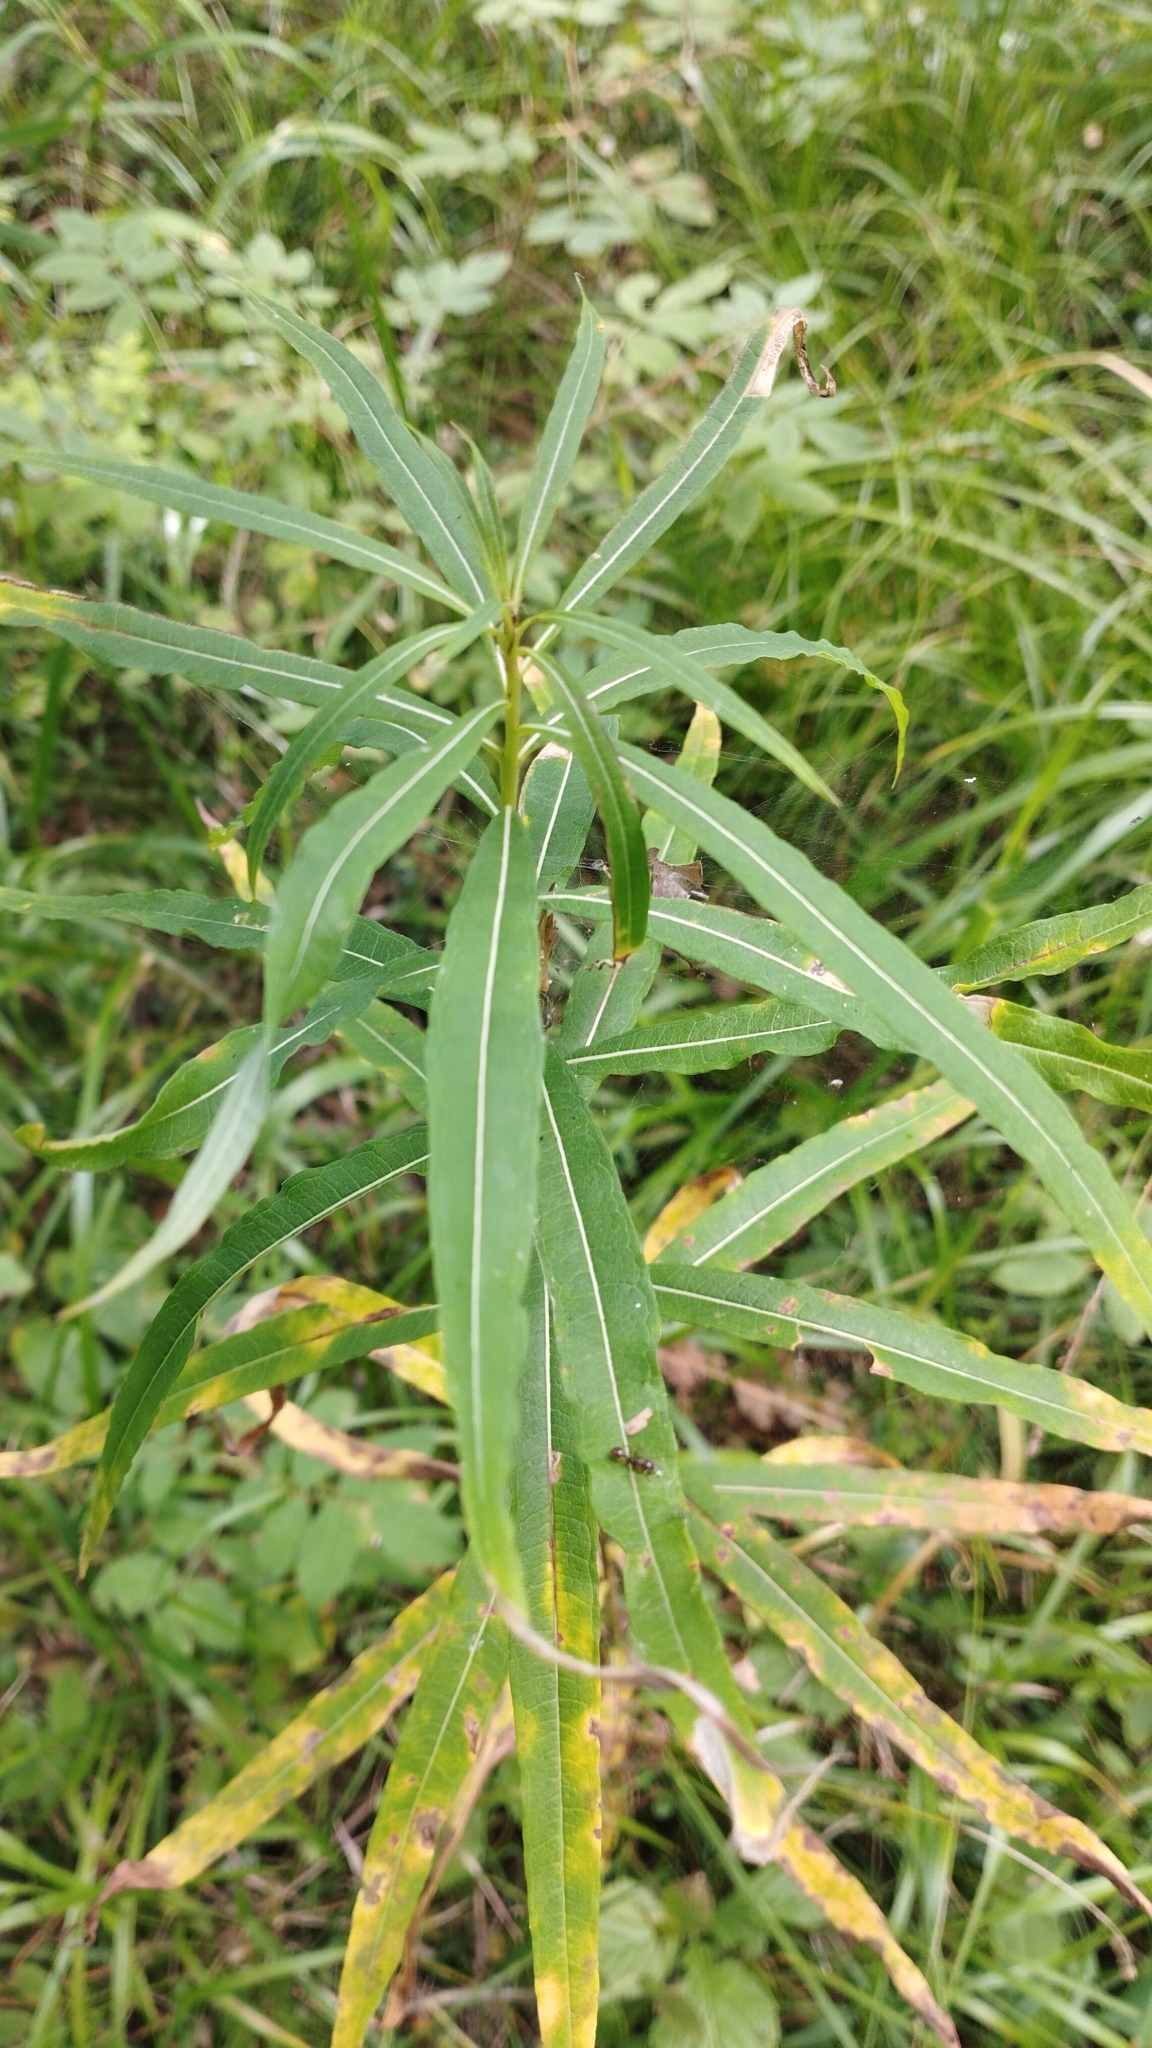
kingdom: Plantae
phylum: Tracheophyta
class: Magnoliopsida
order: Myrtales
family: Onagraceae
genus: Chamaenerion
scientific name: Chamaenerion angustifolium
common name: Fireweed
